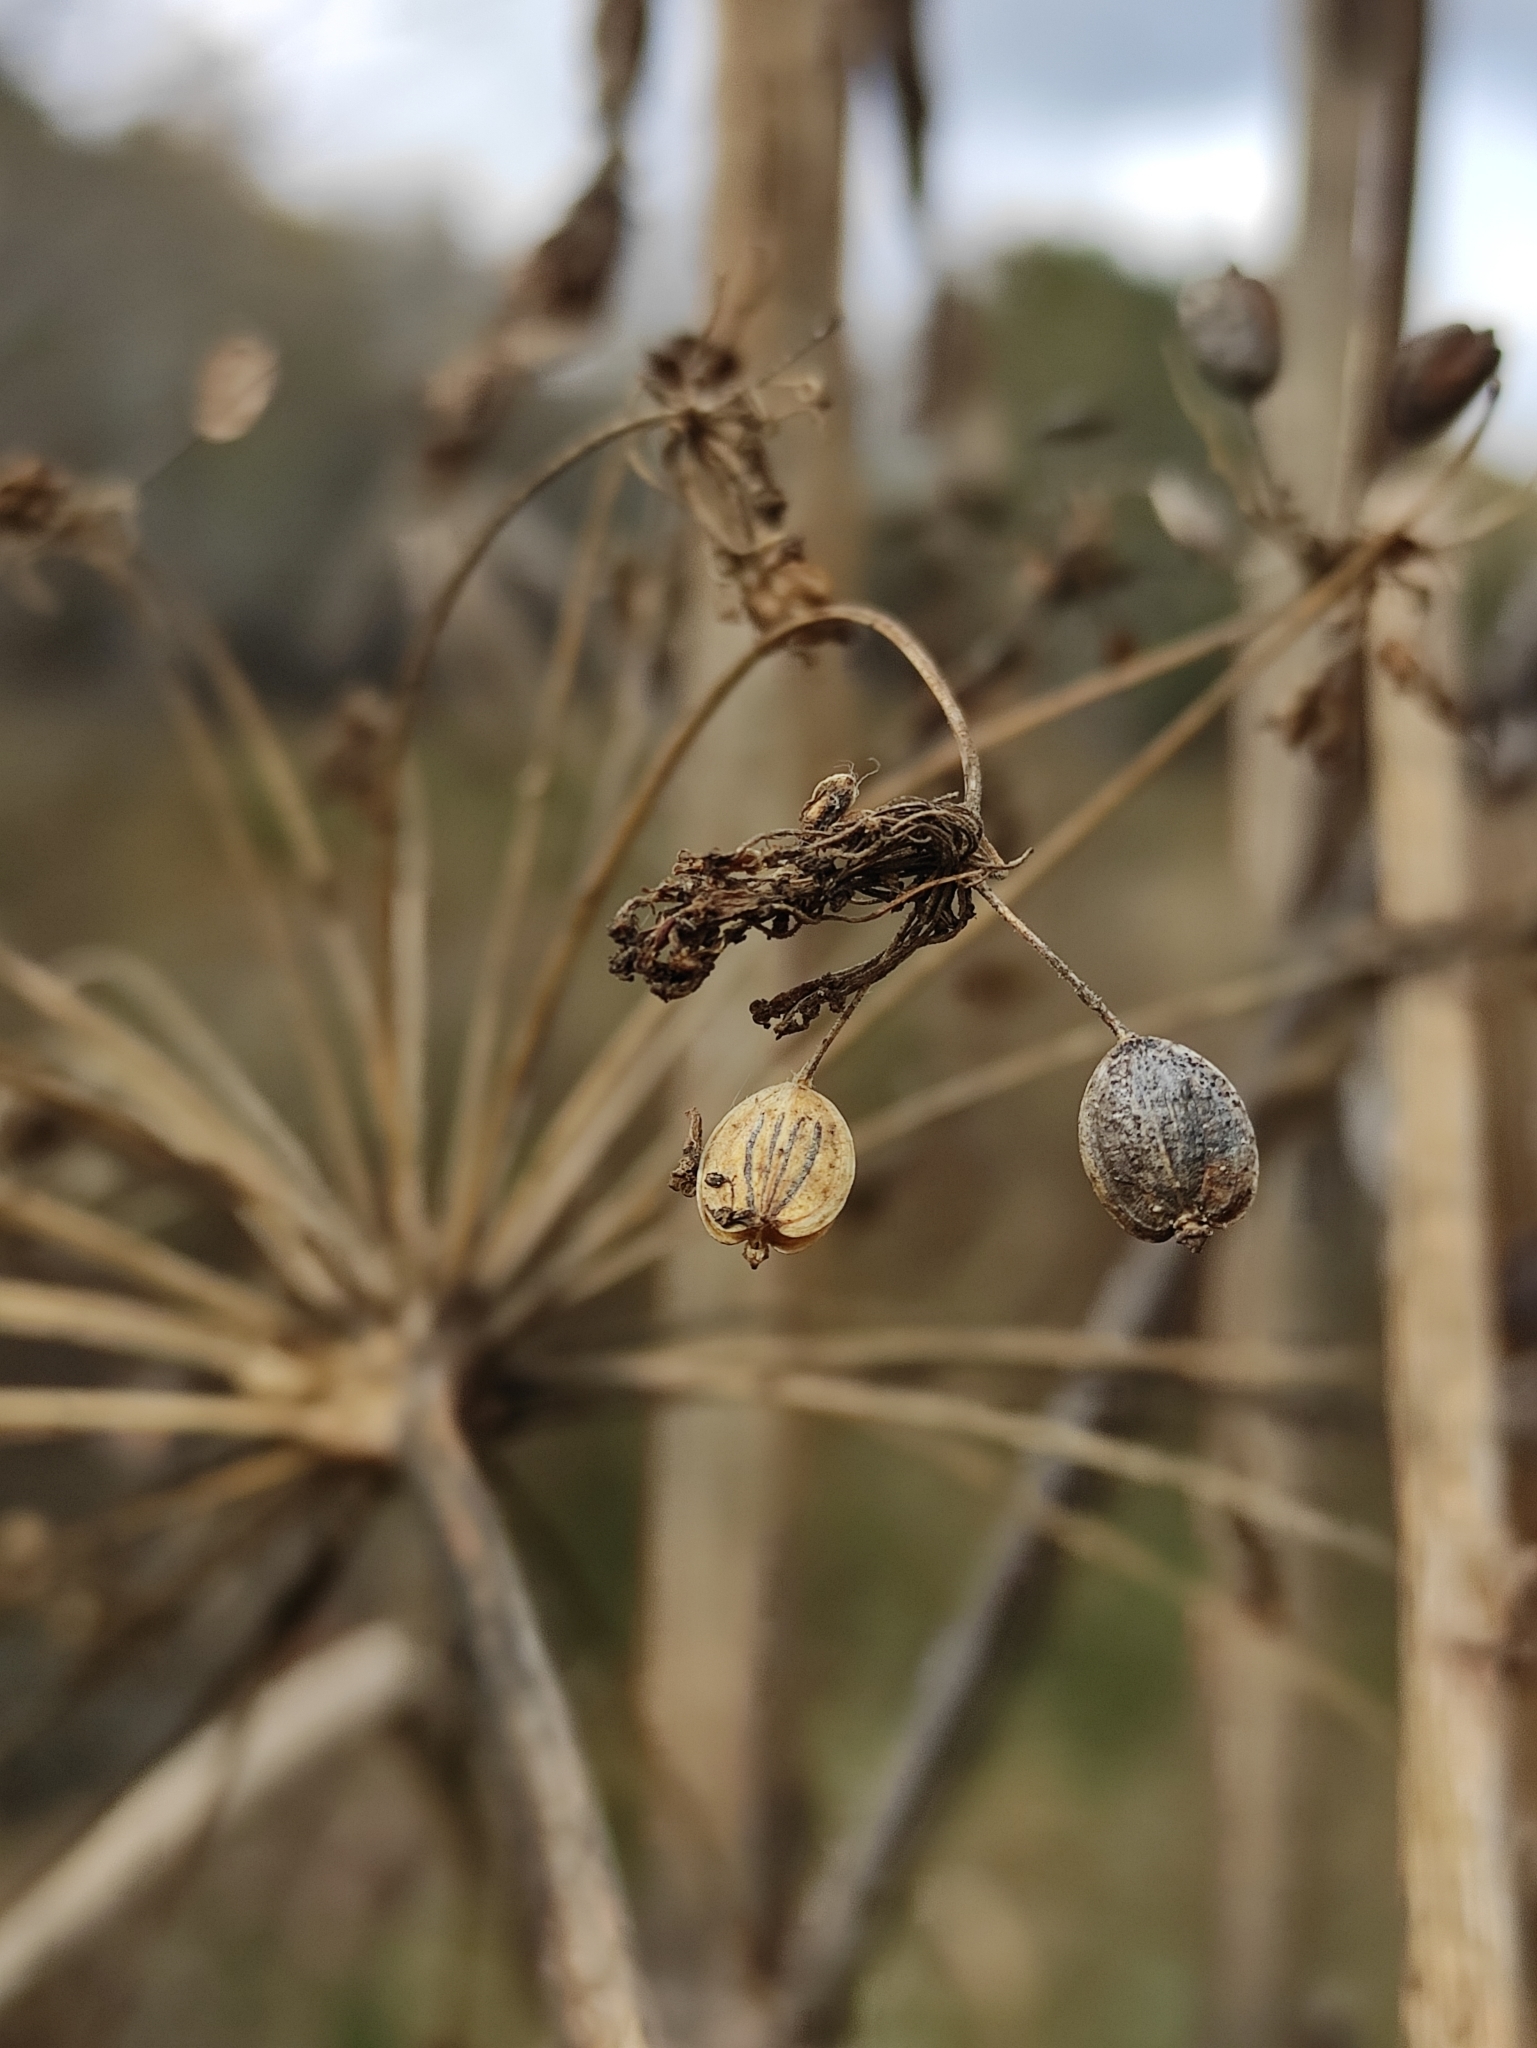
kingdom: Plantae
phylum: Tracheophyta
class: Magnoliopsida
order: Apiales
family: Apiaceae
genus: Heracleum
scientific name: Heracleum dissectum
